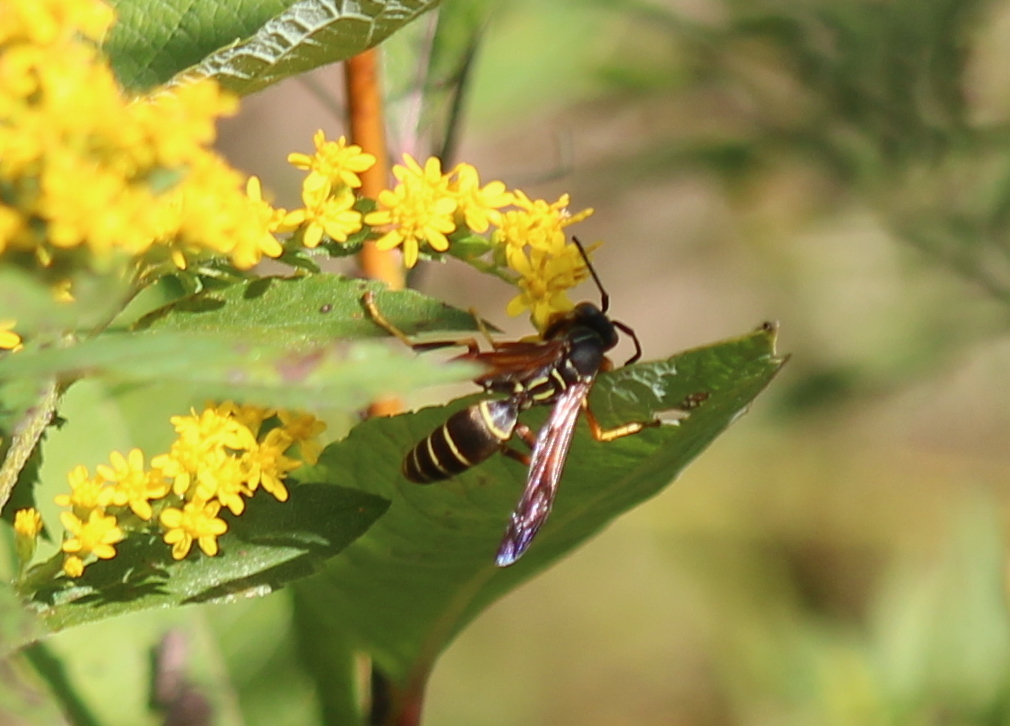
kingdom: Animalia
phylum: Arthropoda
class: Insecta
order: Hymenoptera
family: Eumenidae
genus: Polistes
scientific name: Polistes fuscatus
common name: Dark paper wasp
